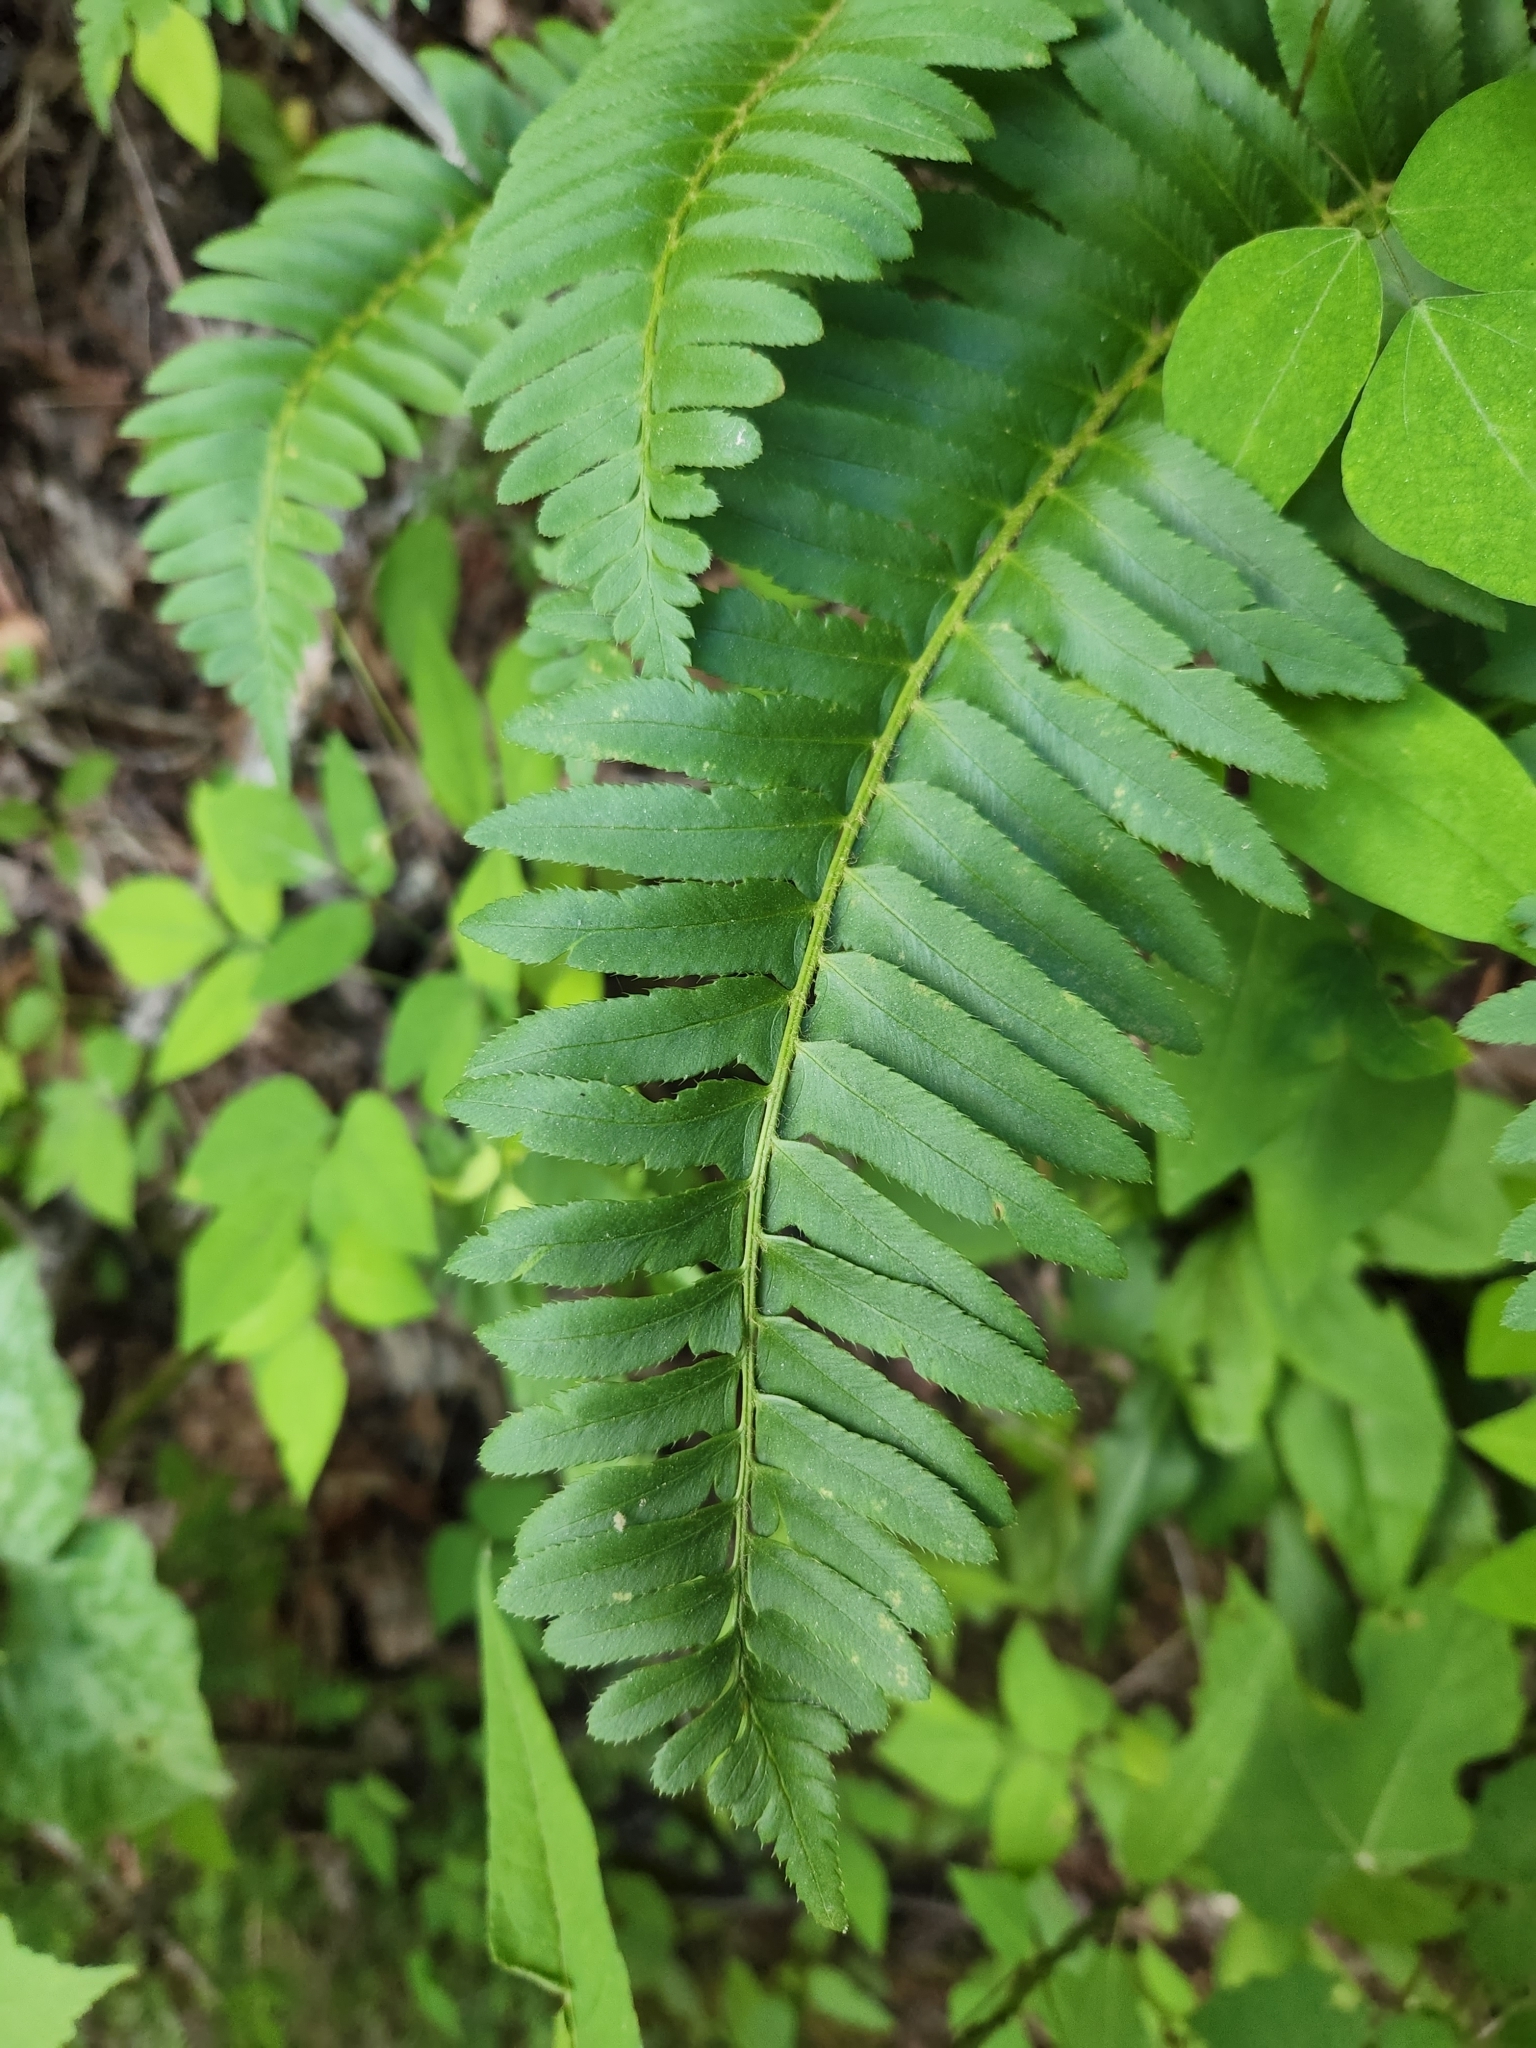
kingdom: Plantae
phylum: Tracheophyta
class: Polypodiopsida
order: Polypodiales
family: Dryopteridaceae
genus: Polystichum
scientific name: Polystichum acrostichoides
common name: Christmas fern
